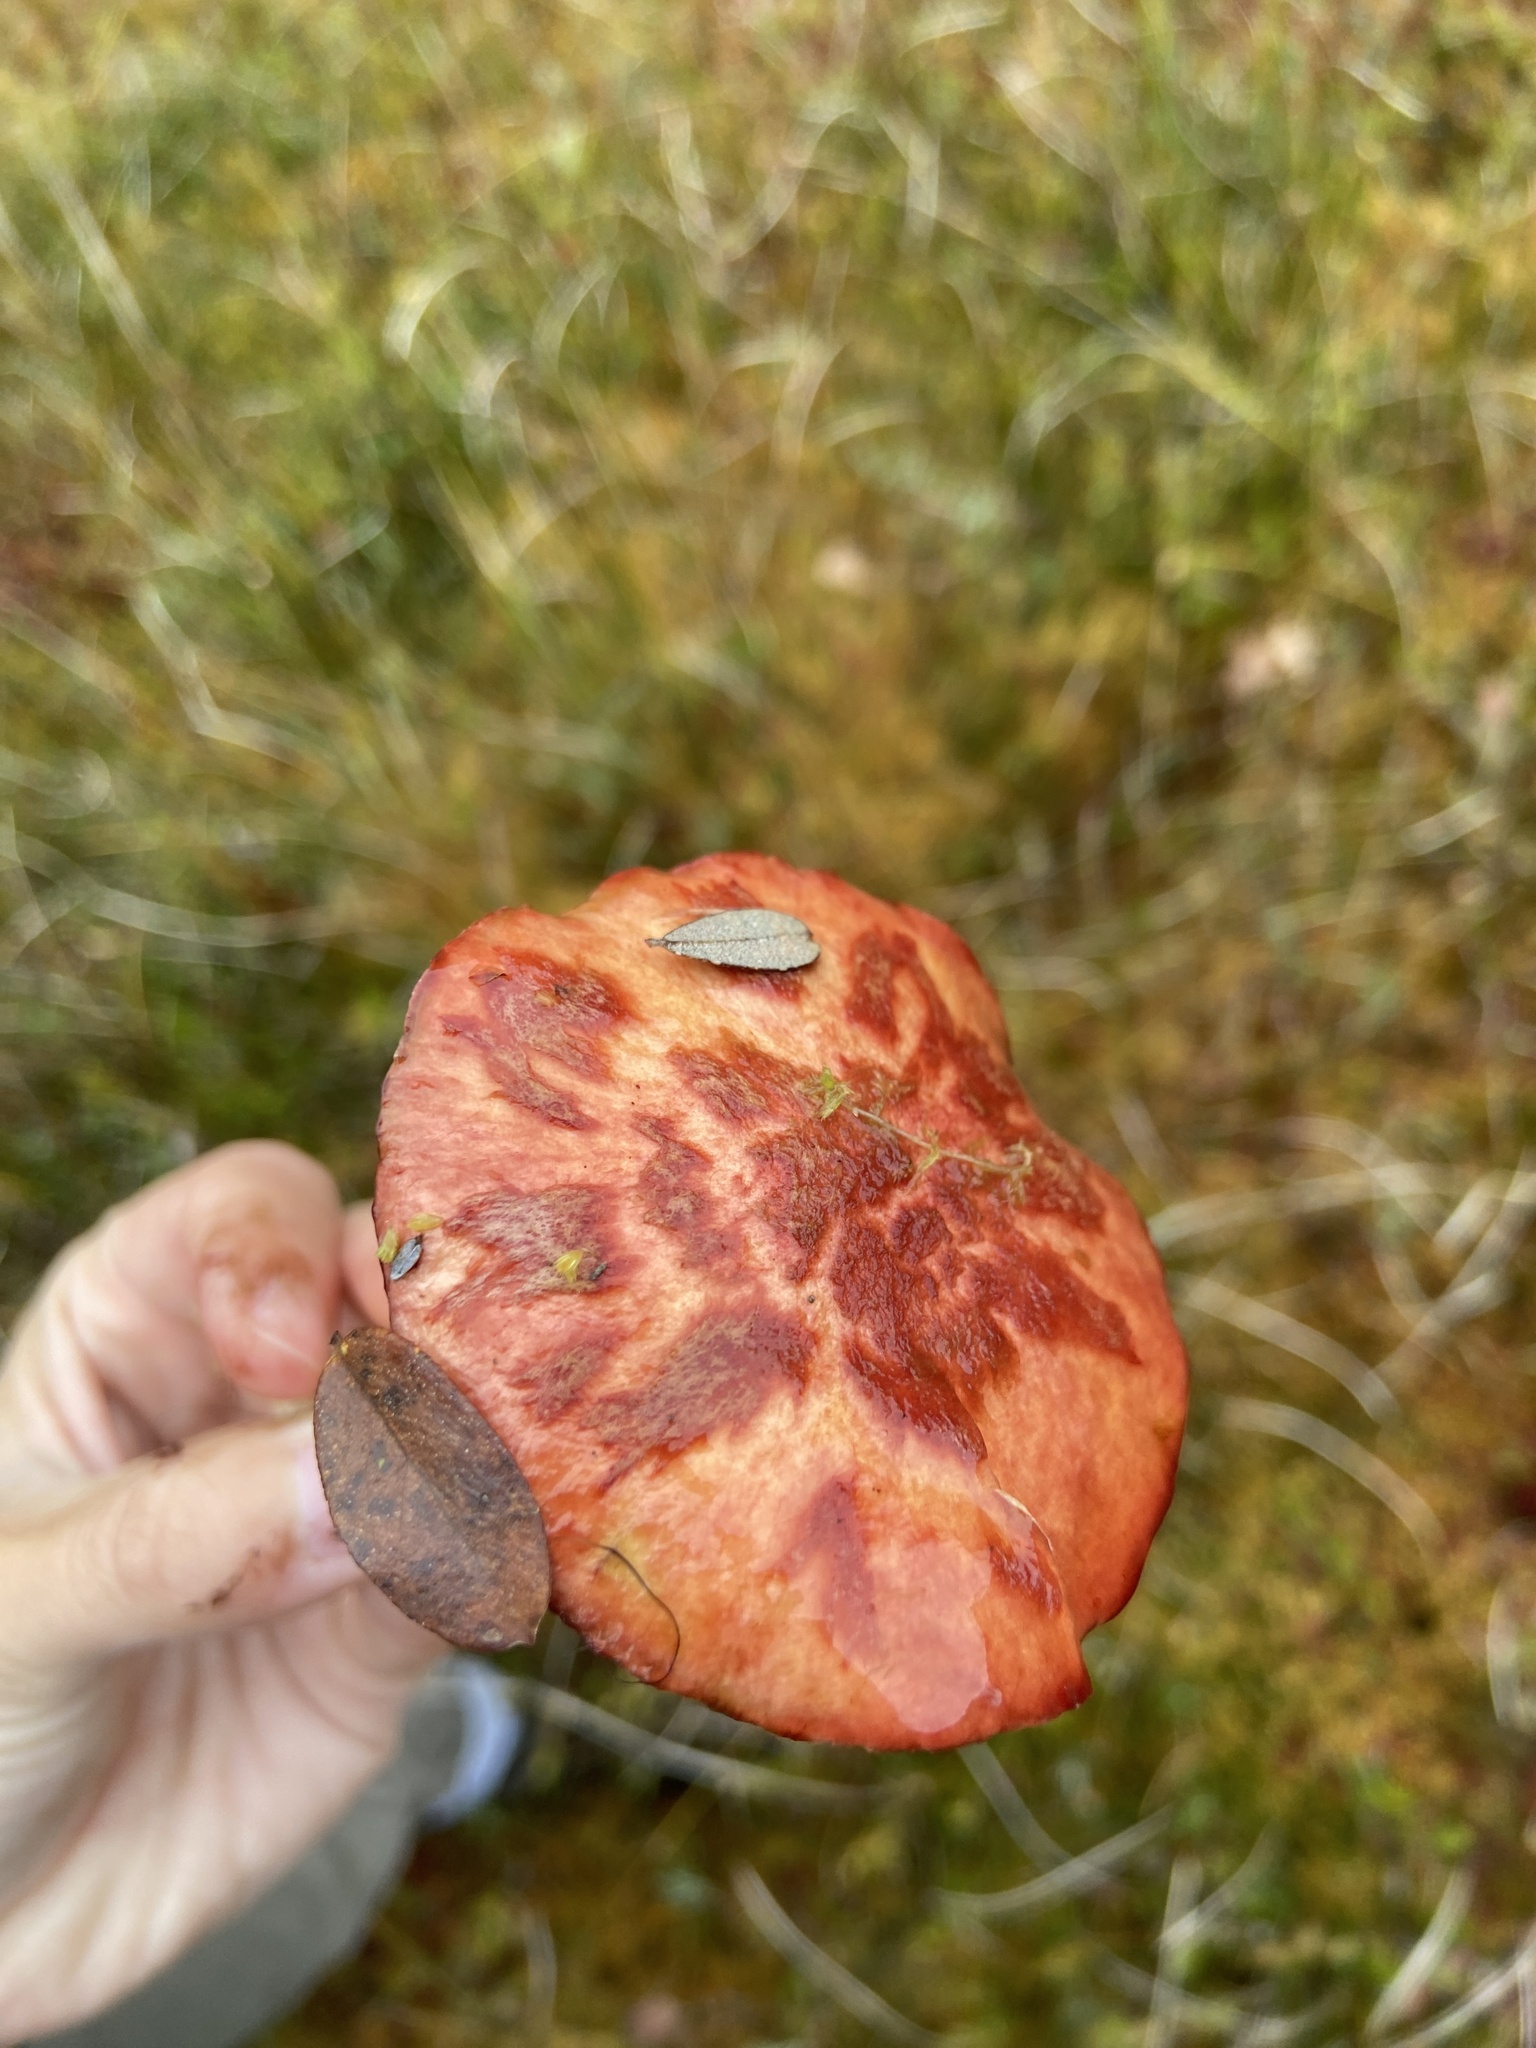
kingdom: Fungi
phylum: Basidiomycota
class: Agaricomycetes
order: Boletales
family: Suillaceae
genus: Boletinus
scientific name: Boletinus spectabilis
